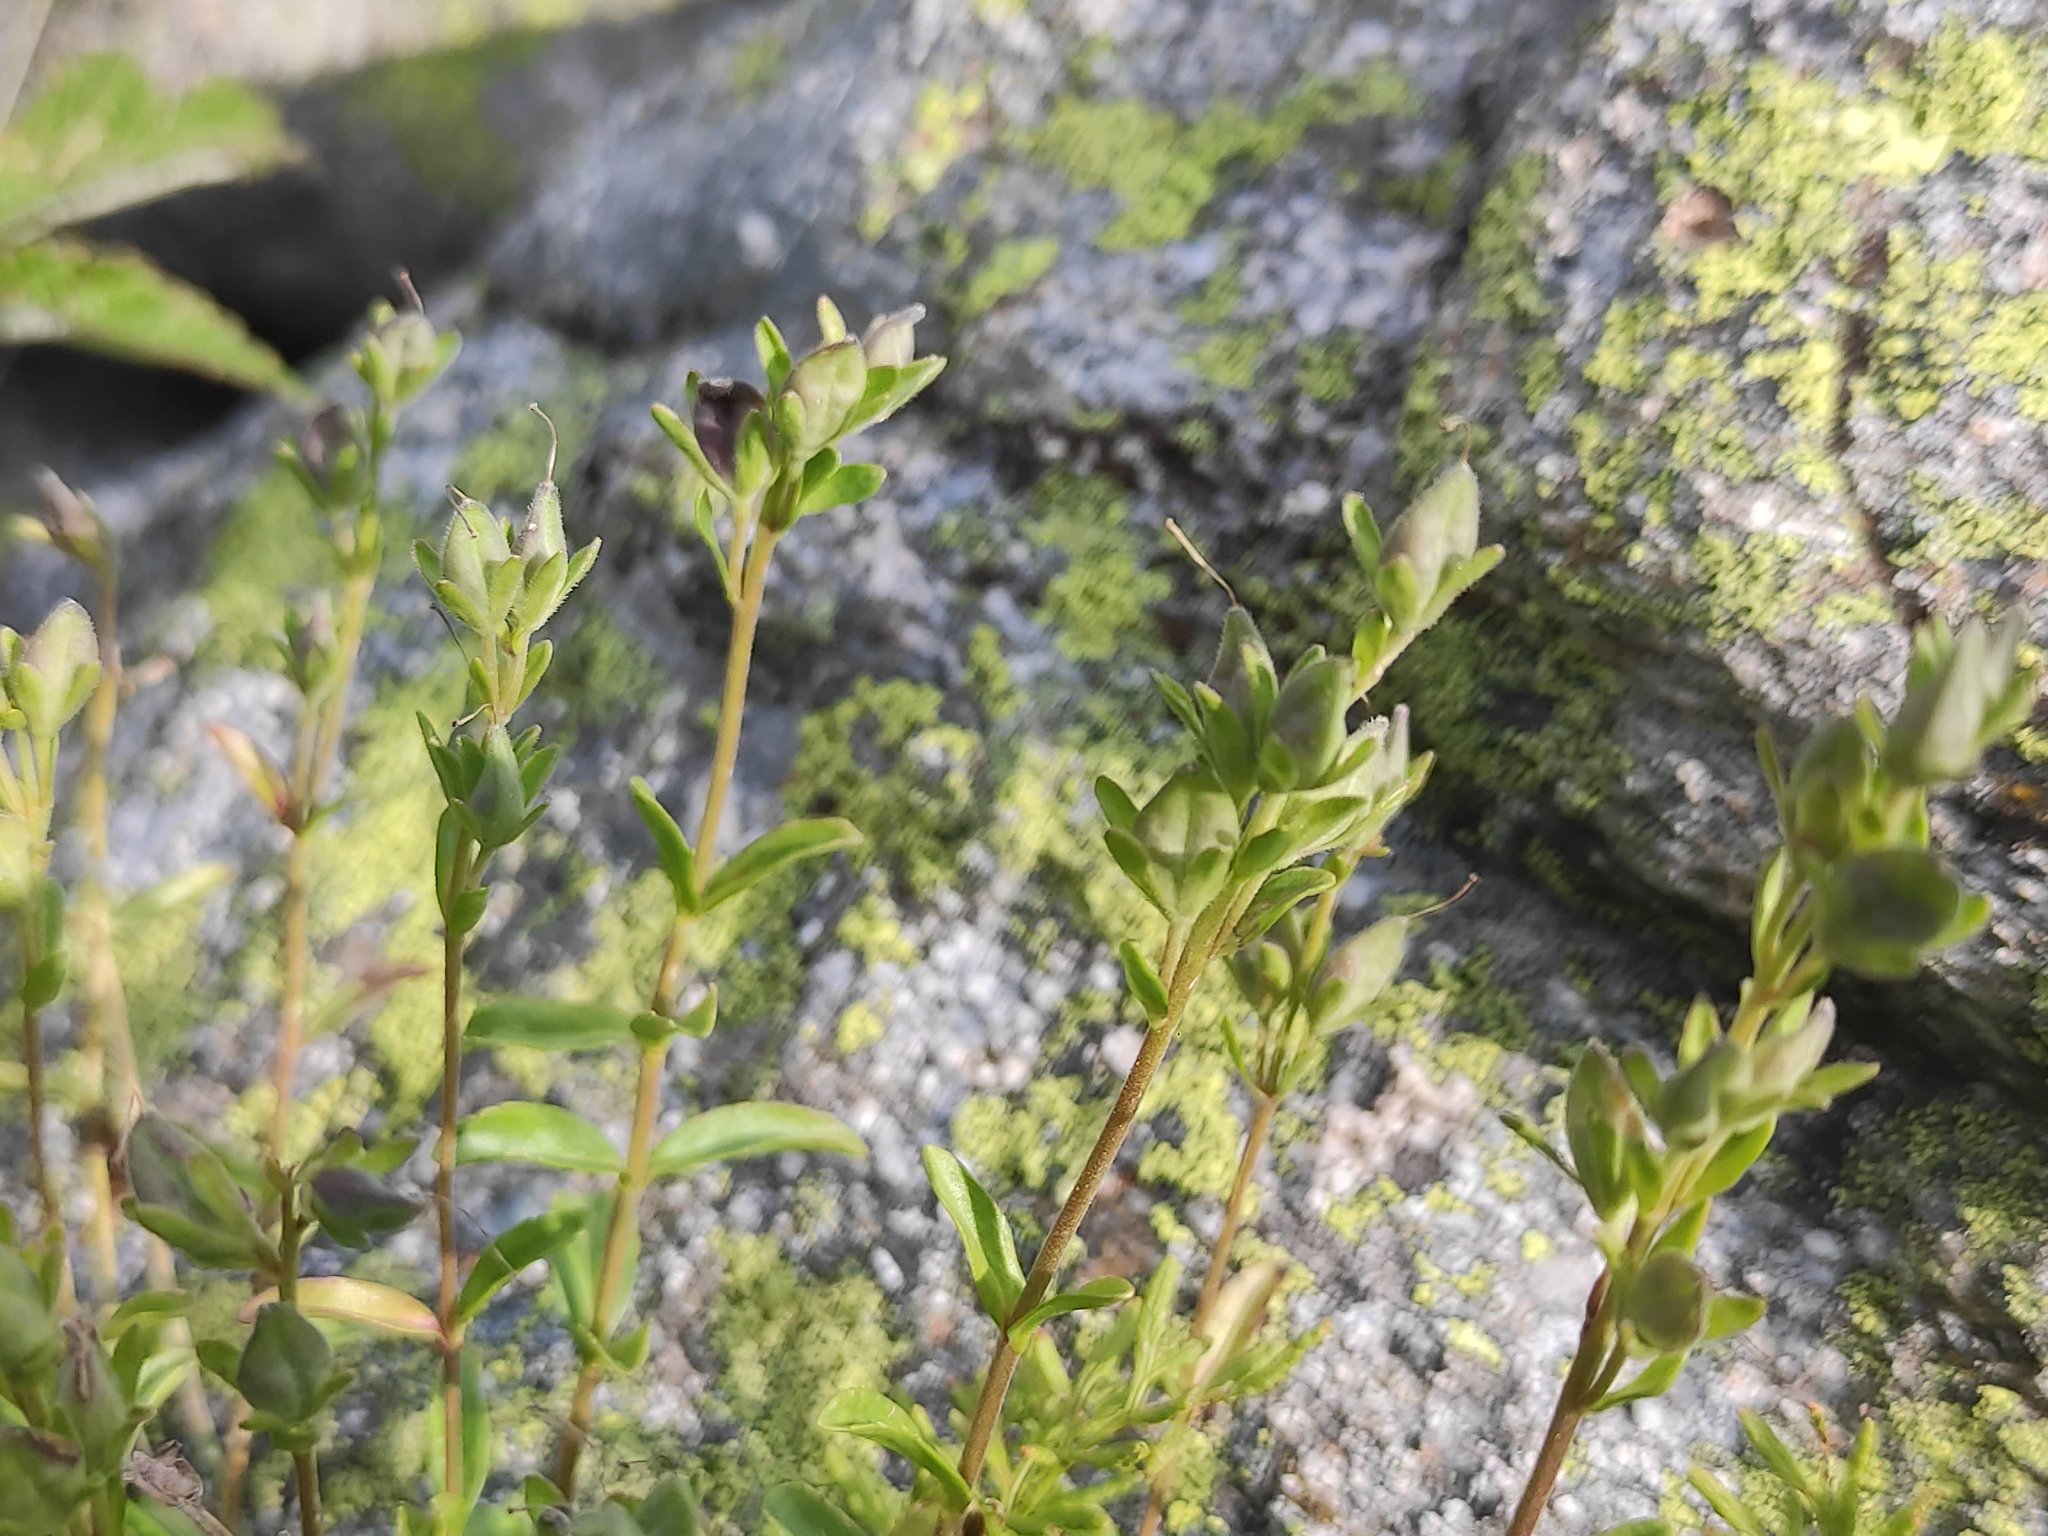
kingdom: Plantae
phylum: Tracheophyta
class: Magnoliopsida
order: Lamiales
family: Plantaginaceae
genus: Veronica
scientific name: Veronica fruticans
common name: Rock speedwell
